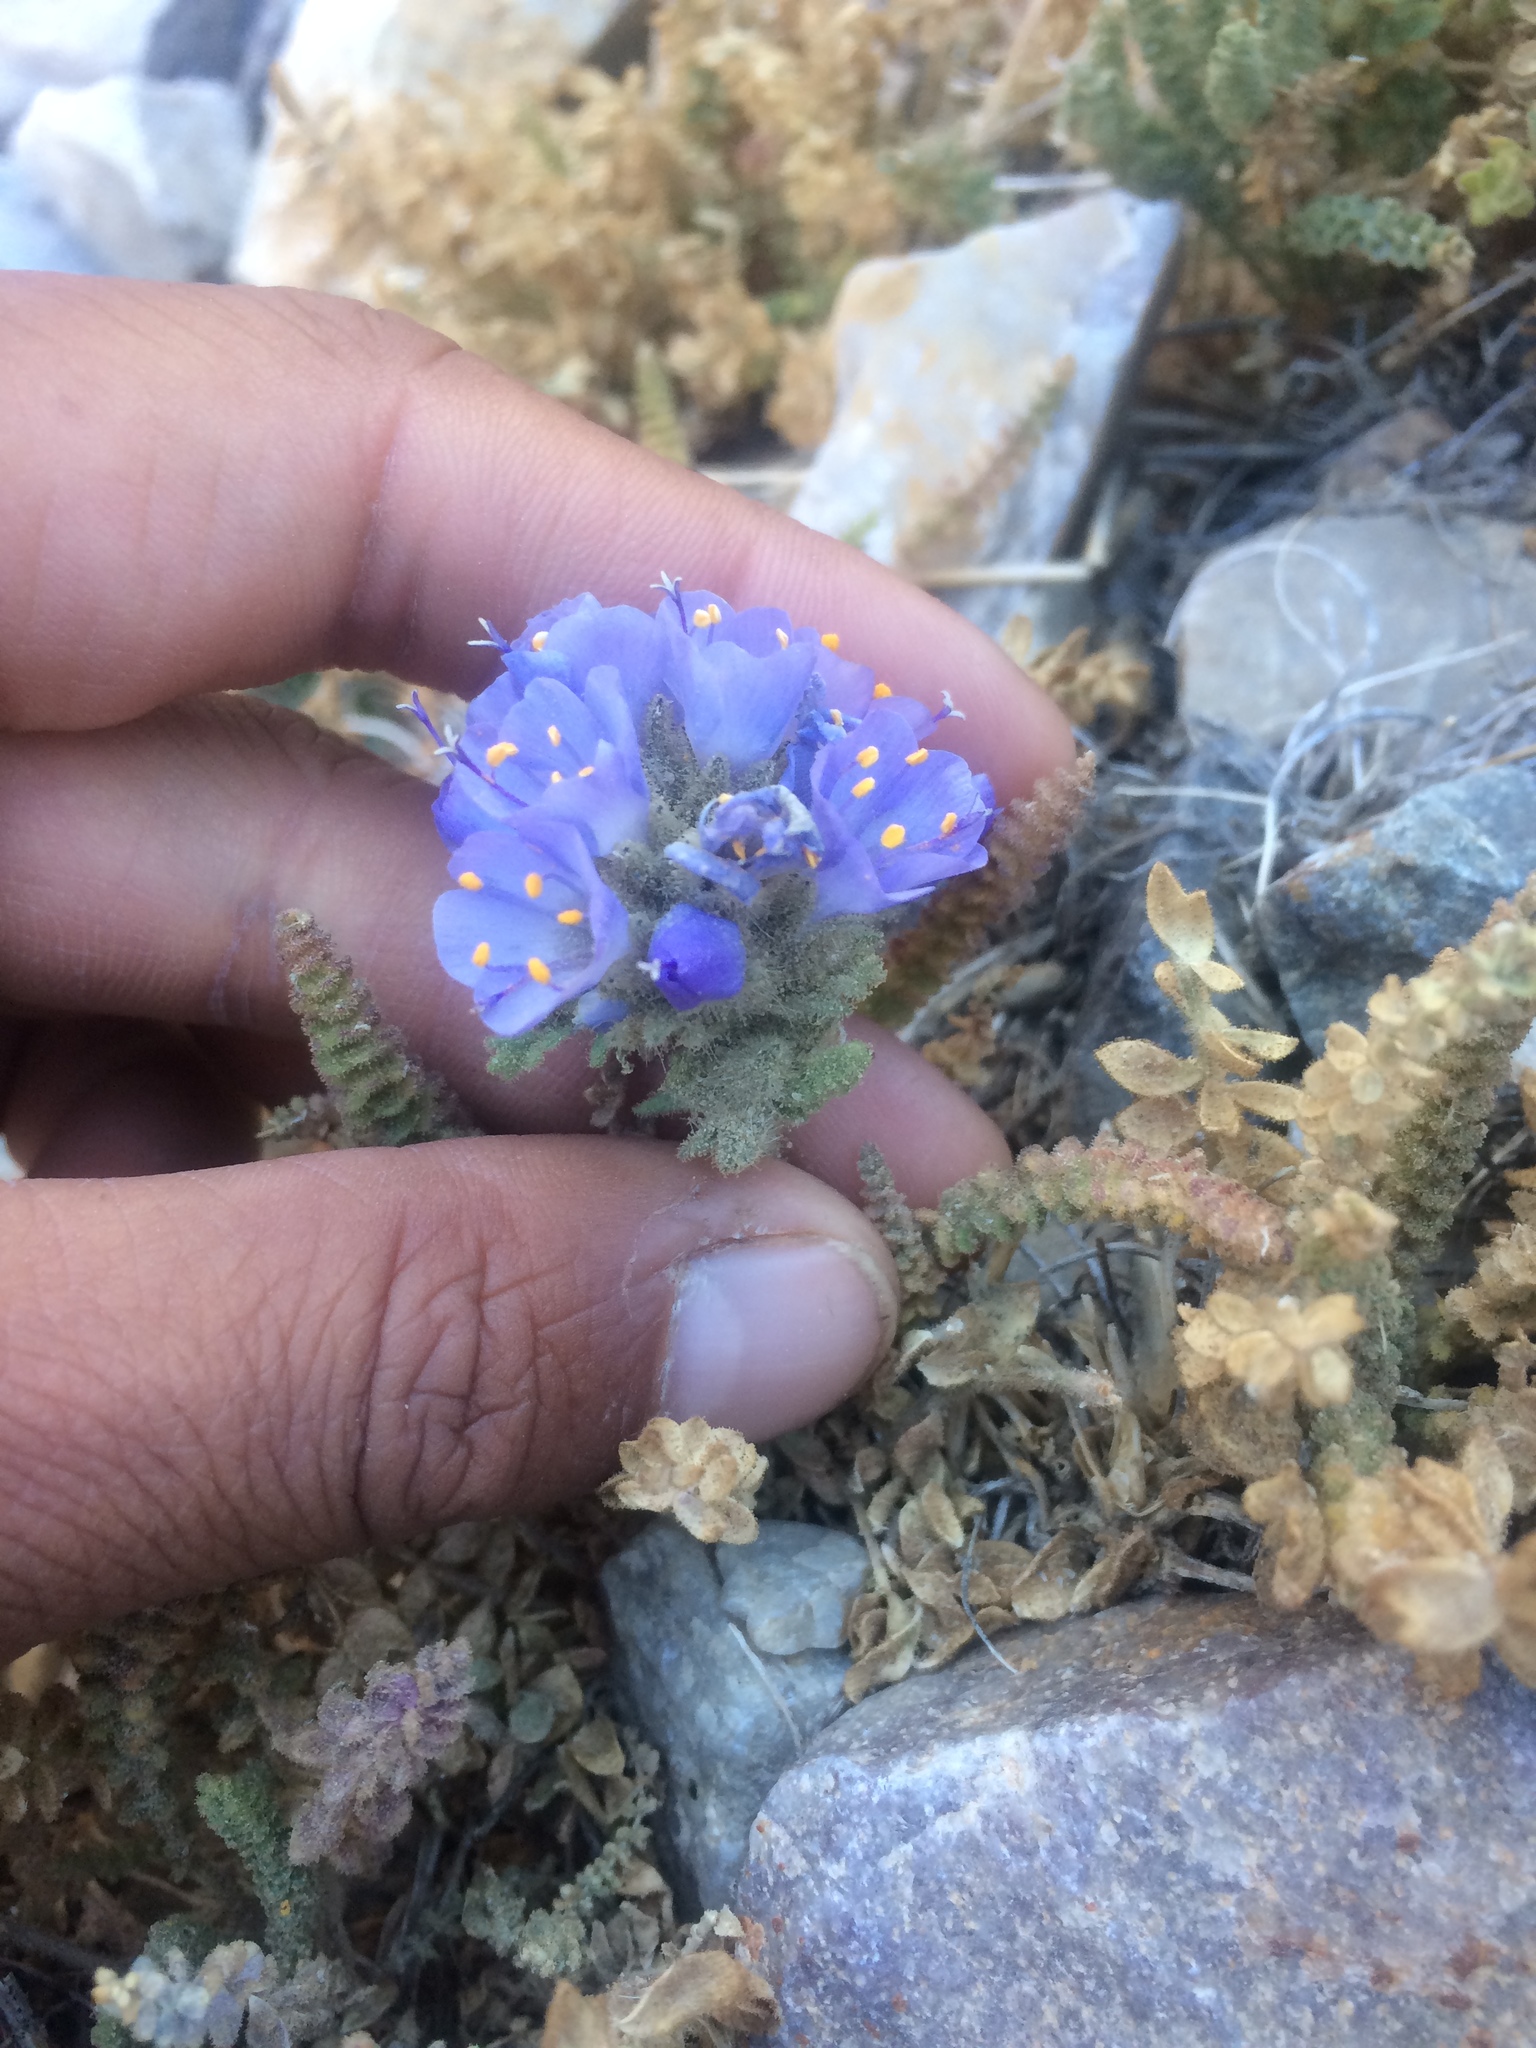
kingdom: Plantae
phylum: Tracheophyta
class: Magnoliopsida
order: Ericales
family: Polemoniaceae
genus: Polemonium
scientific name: Polemonium viscosum
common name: Skunk jacob's-ladder
